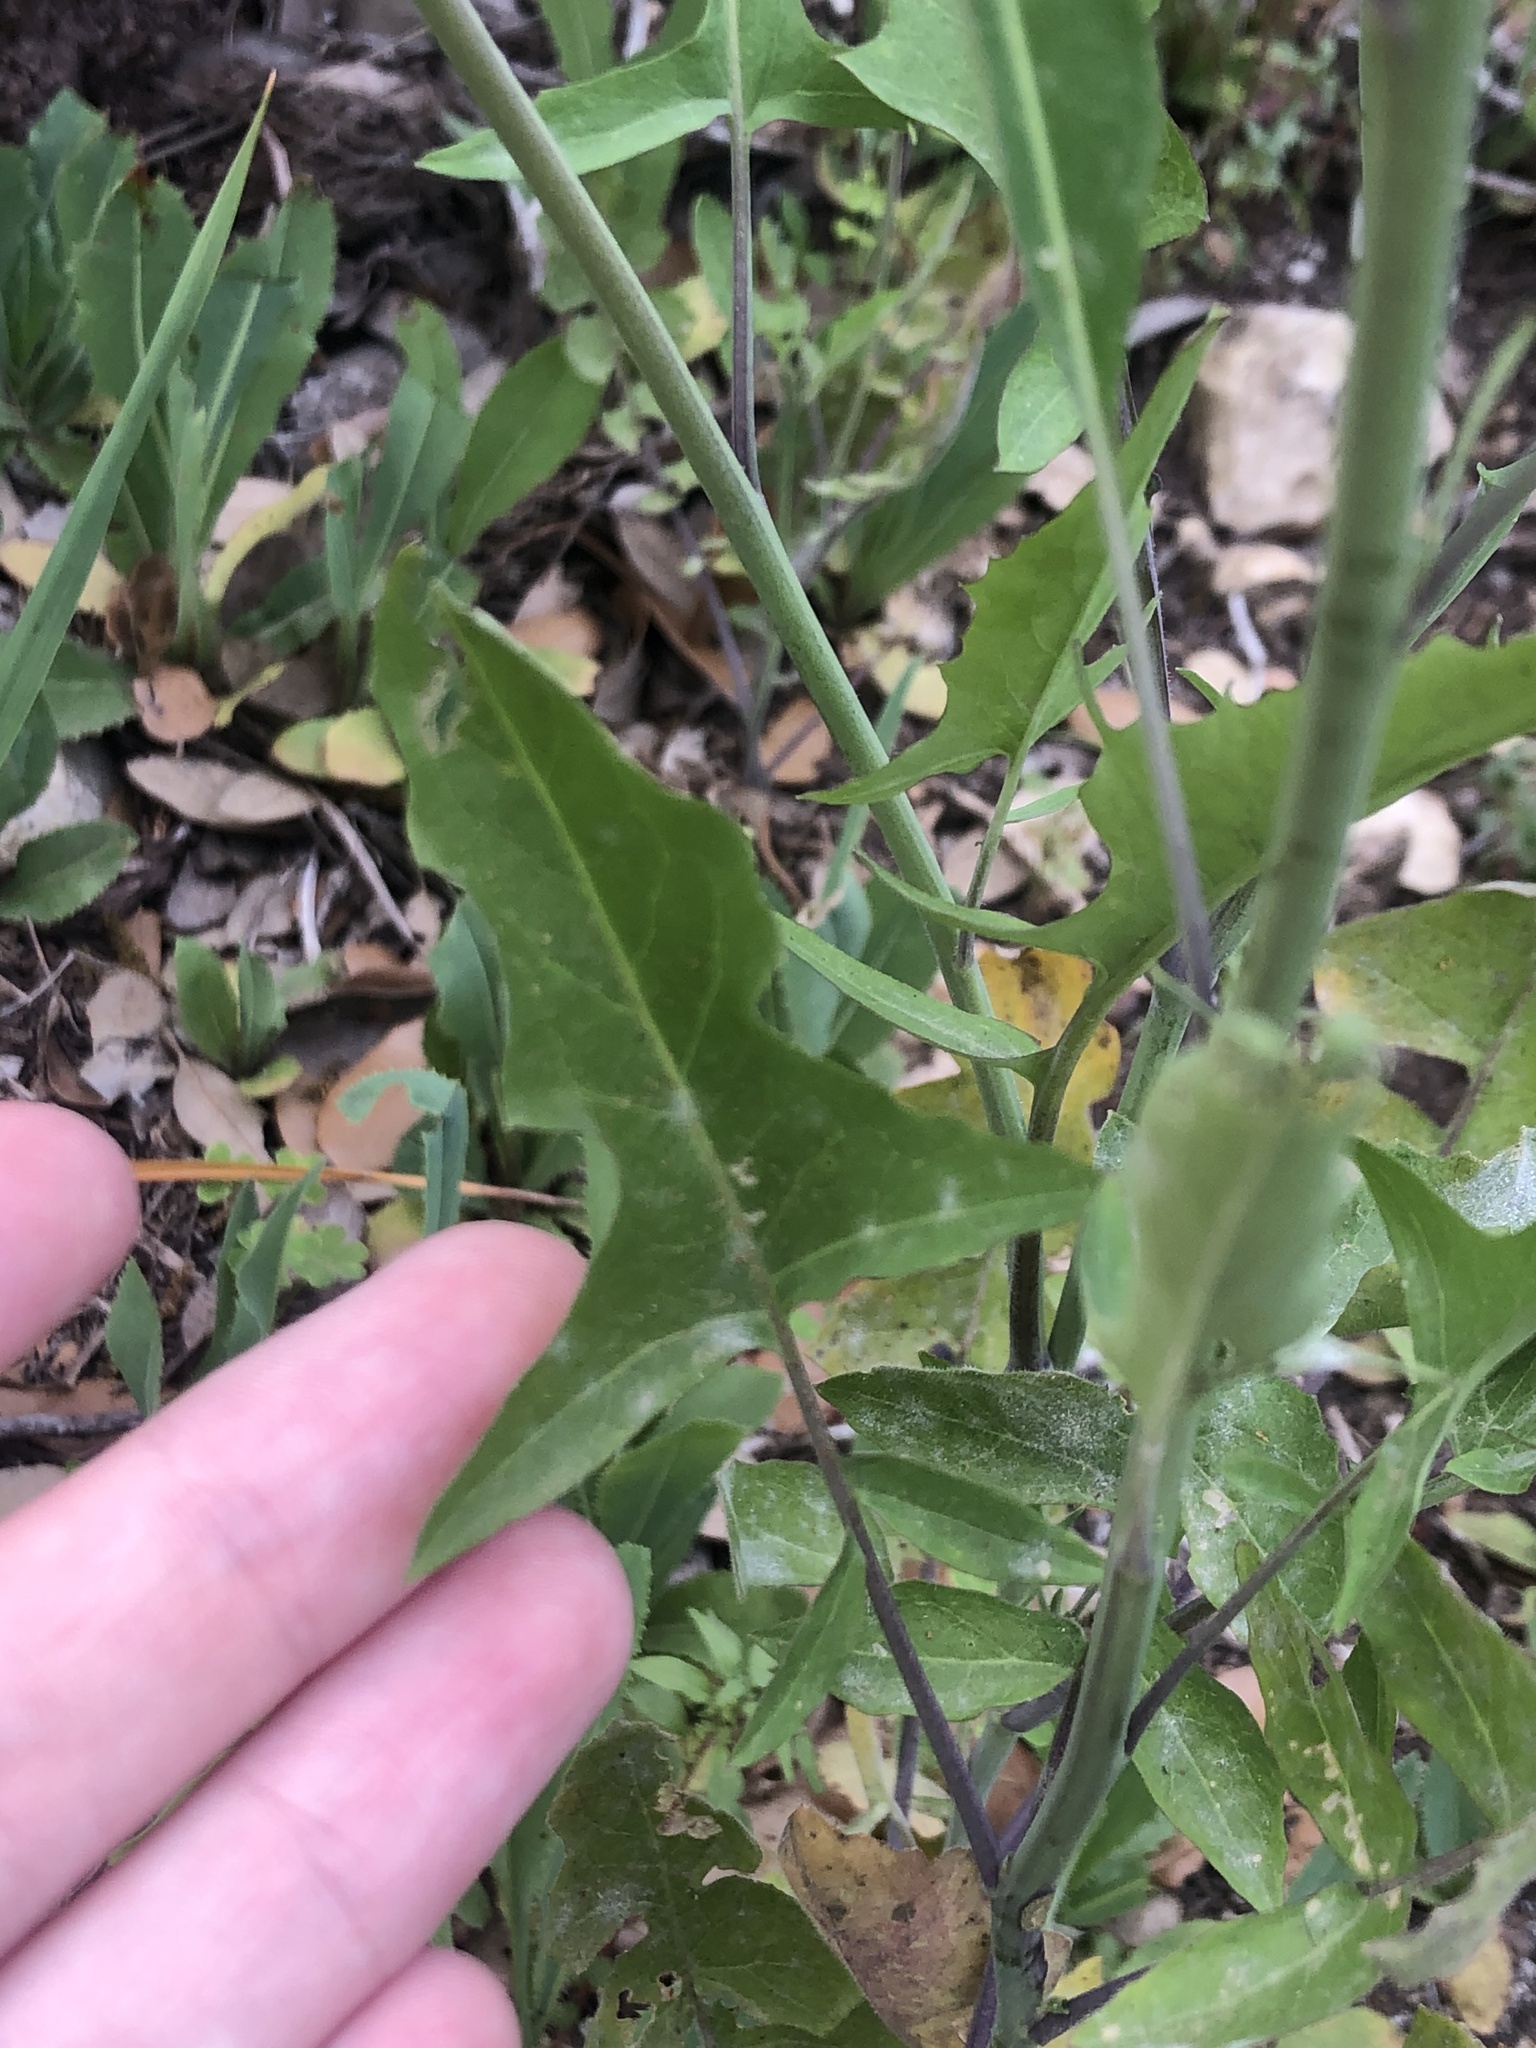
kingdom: Plantae
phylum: Tracheophyta
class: Magnoliopsida
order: Brassicales
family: Brassicaceae
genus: Streptanthus
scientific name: Streptanthus petiolaris
